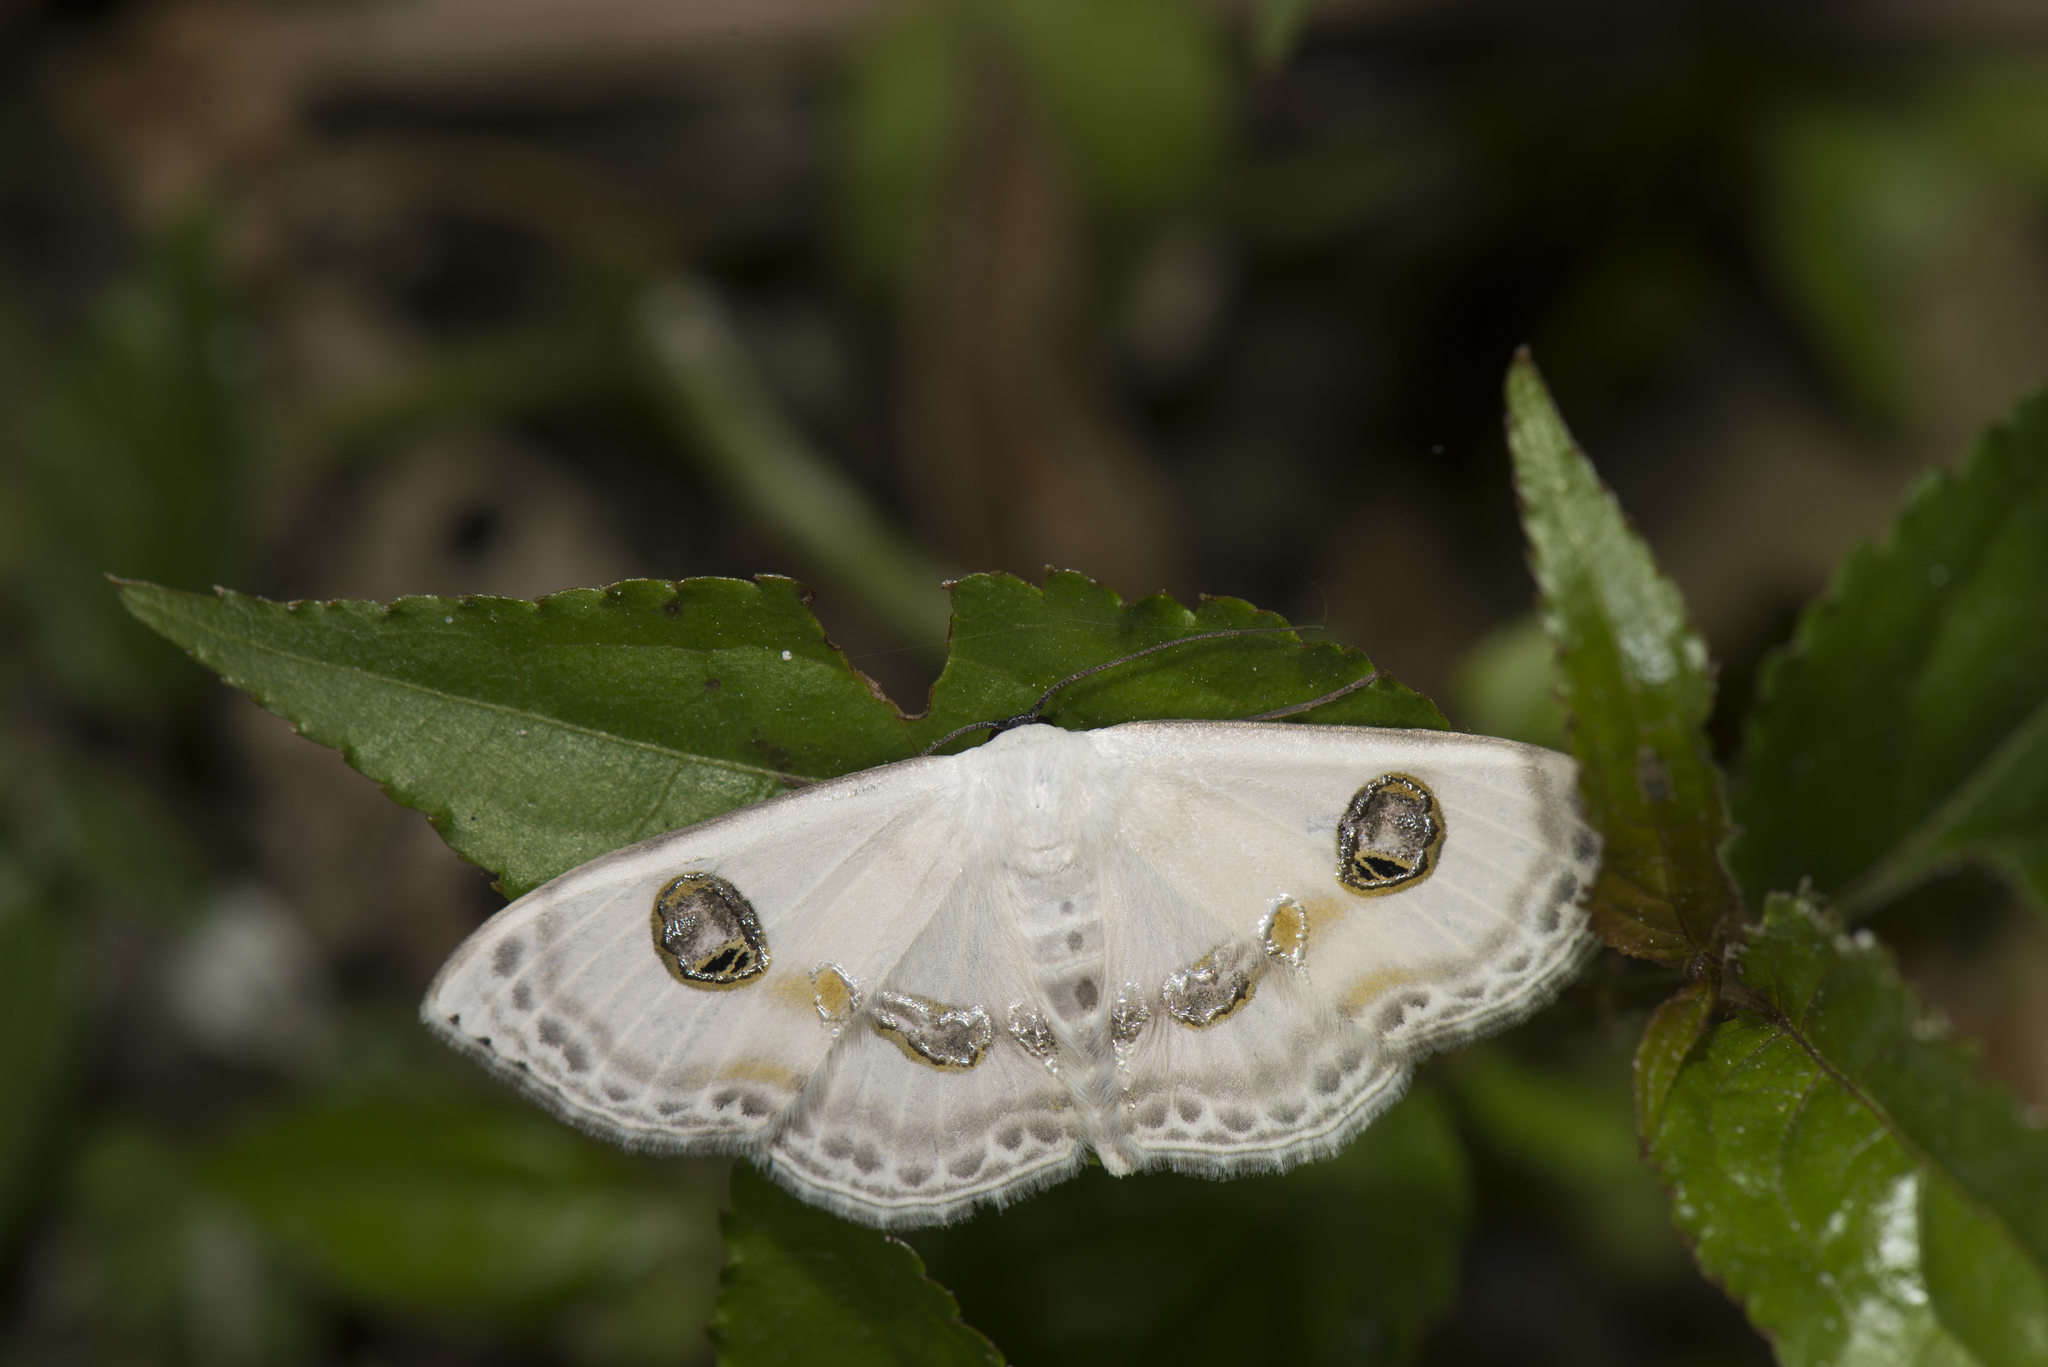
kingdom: Animalia
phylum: Arthropoda
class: Insecta
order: Lepidoptera
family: Geometridae
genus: Problepsis
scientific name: Problepsis albidior
